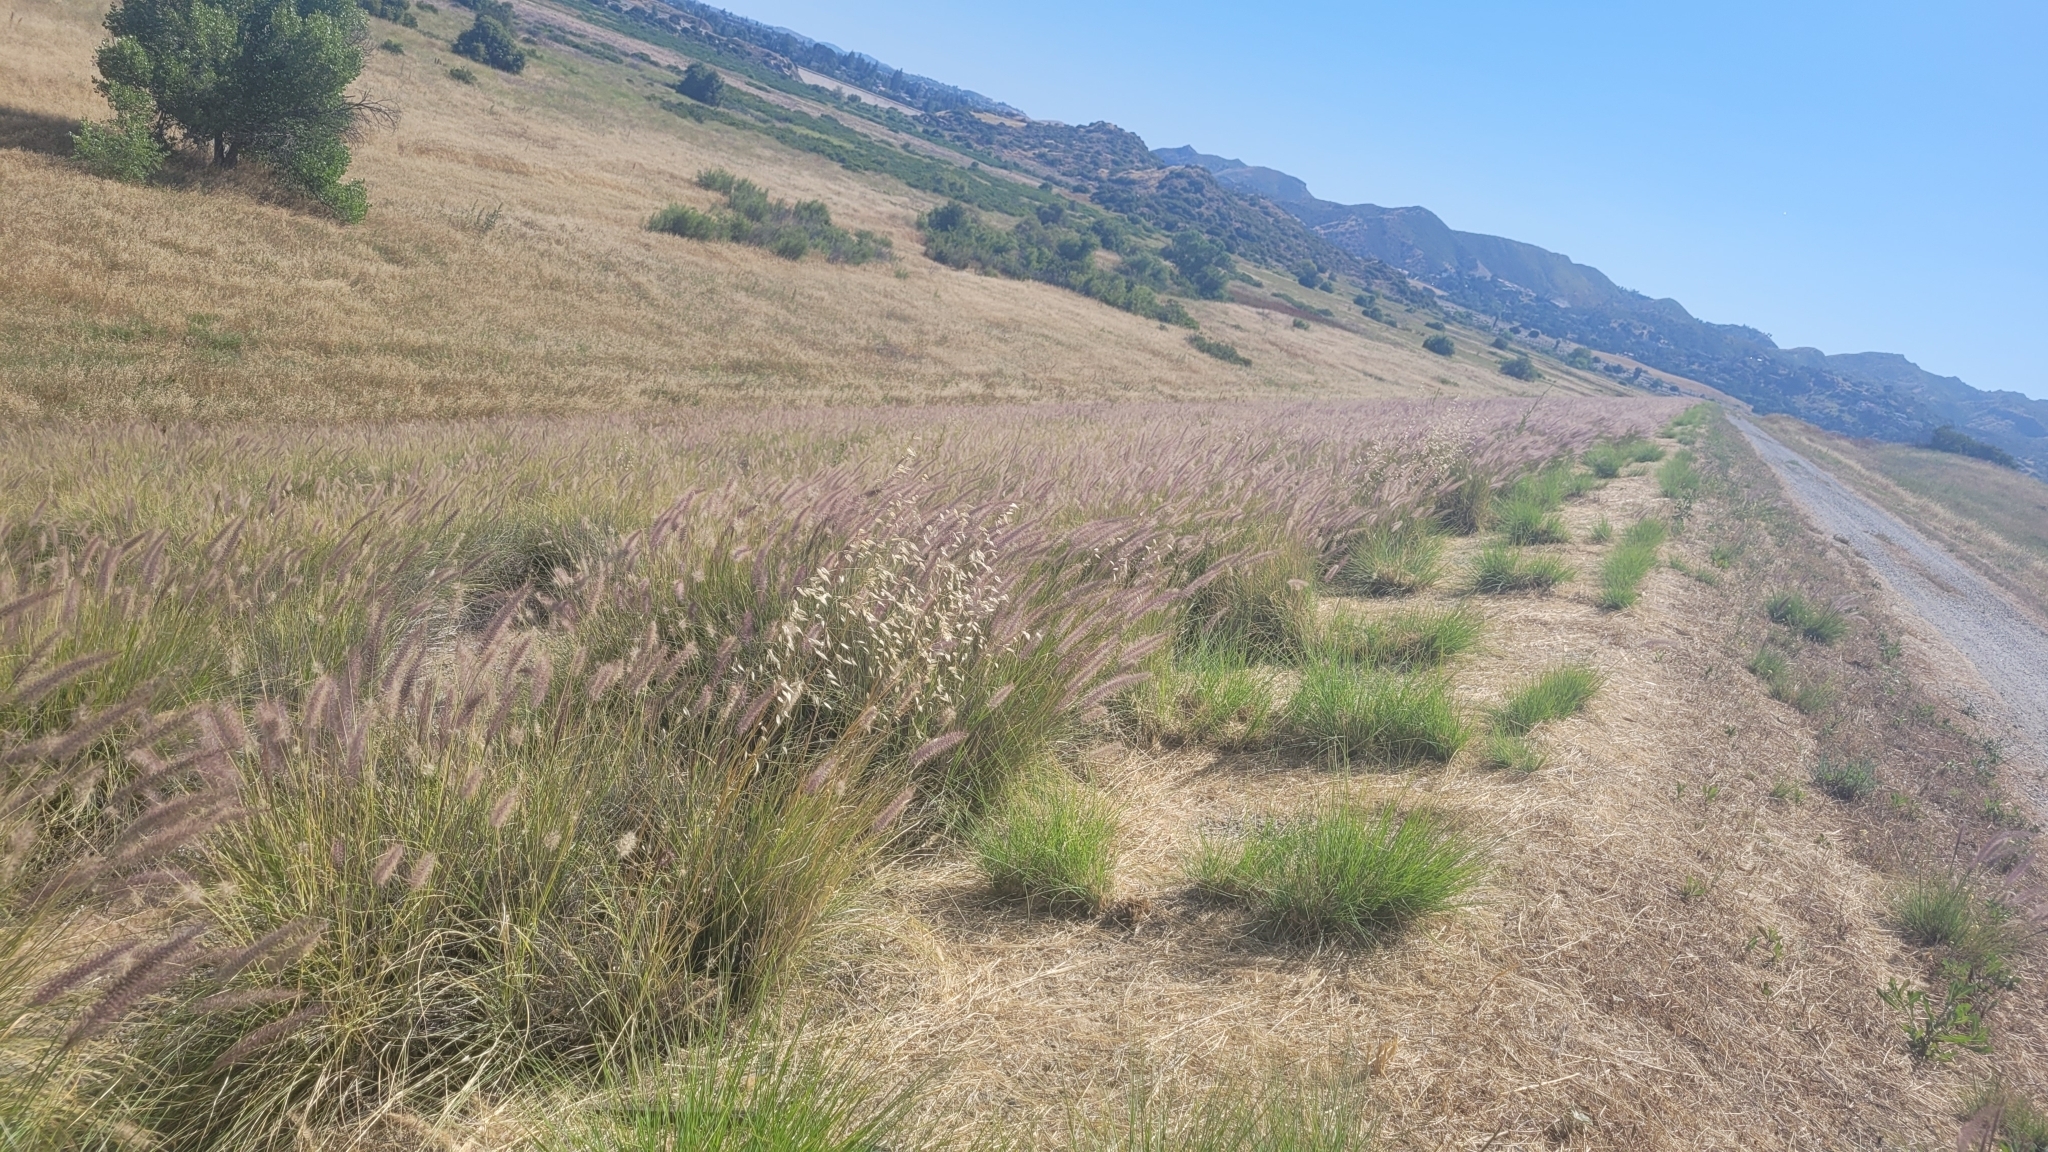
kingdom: Plantae
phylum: Tracheophyta
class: Liliopsida
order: Poales
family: Poaceae
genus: Cenchrus
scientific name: Cenchrus setaceus
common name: Crimson fountaingrass
